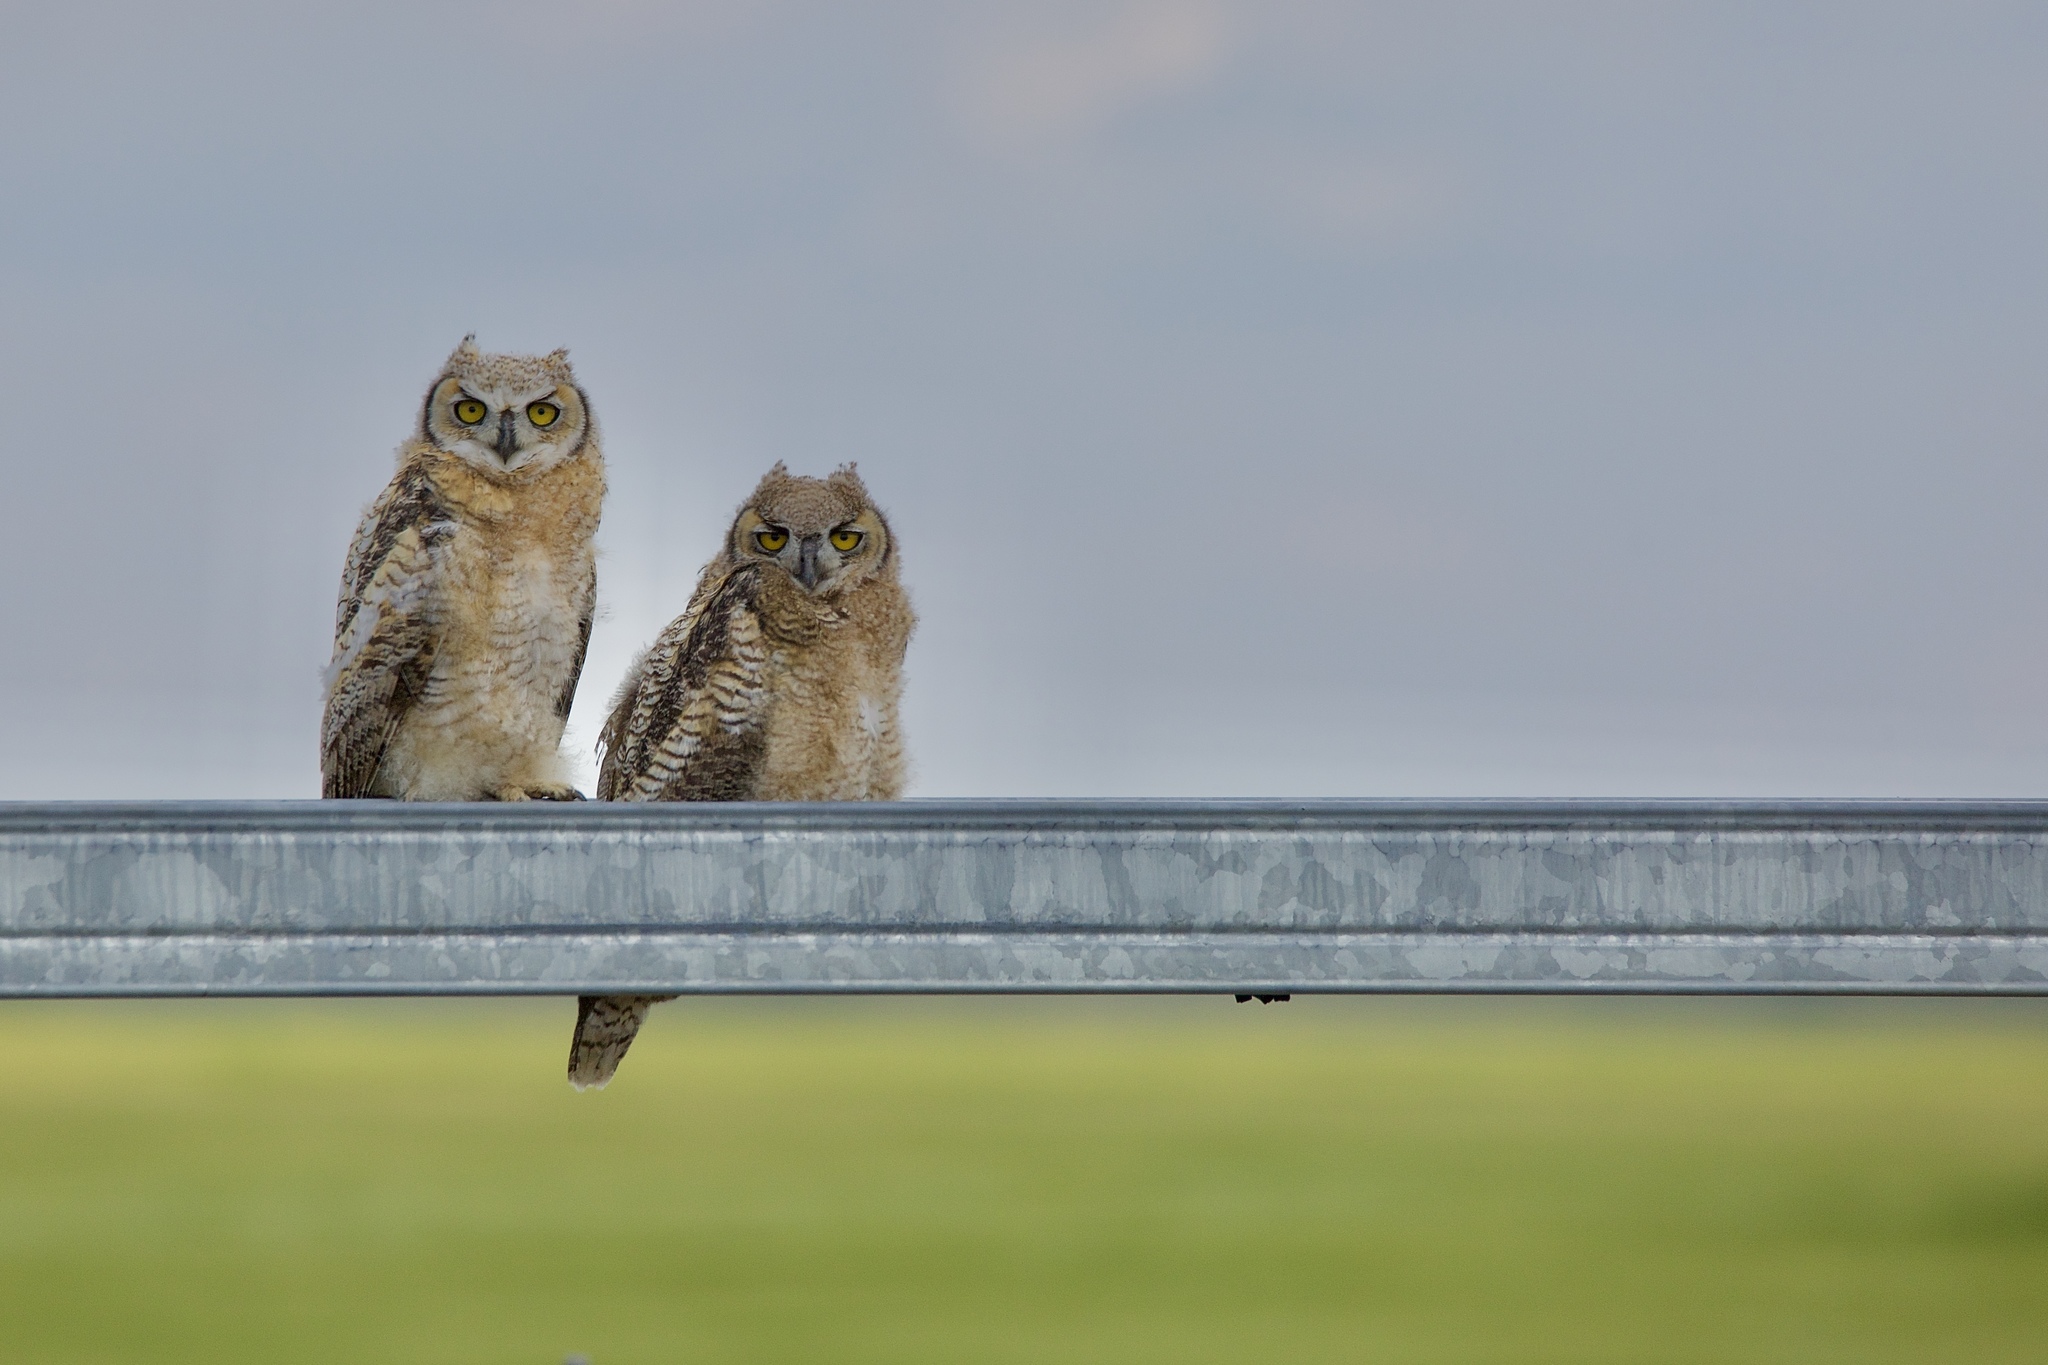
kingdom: Animalia
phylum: Chordata
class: Aves
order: Strigiformes
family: Strigidae
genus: Bubo
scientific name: Bubo virginianus
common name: Great horned owl
